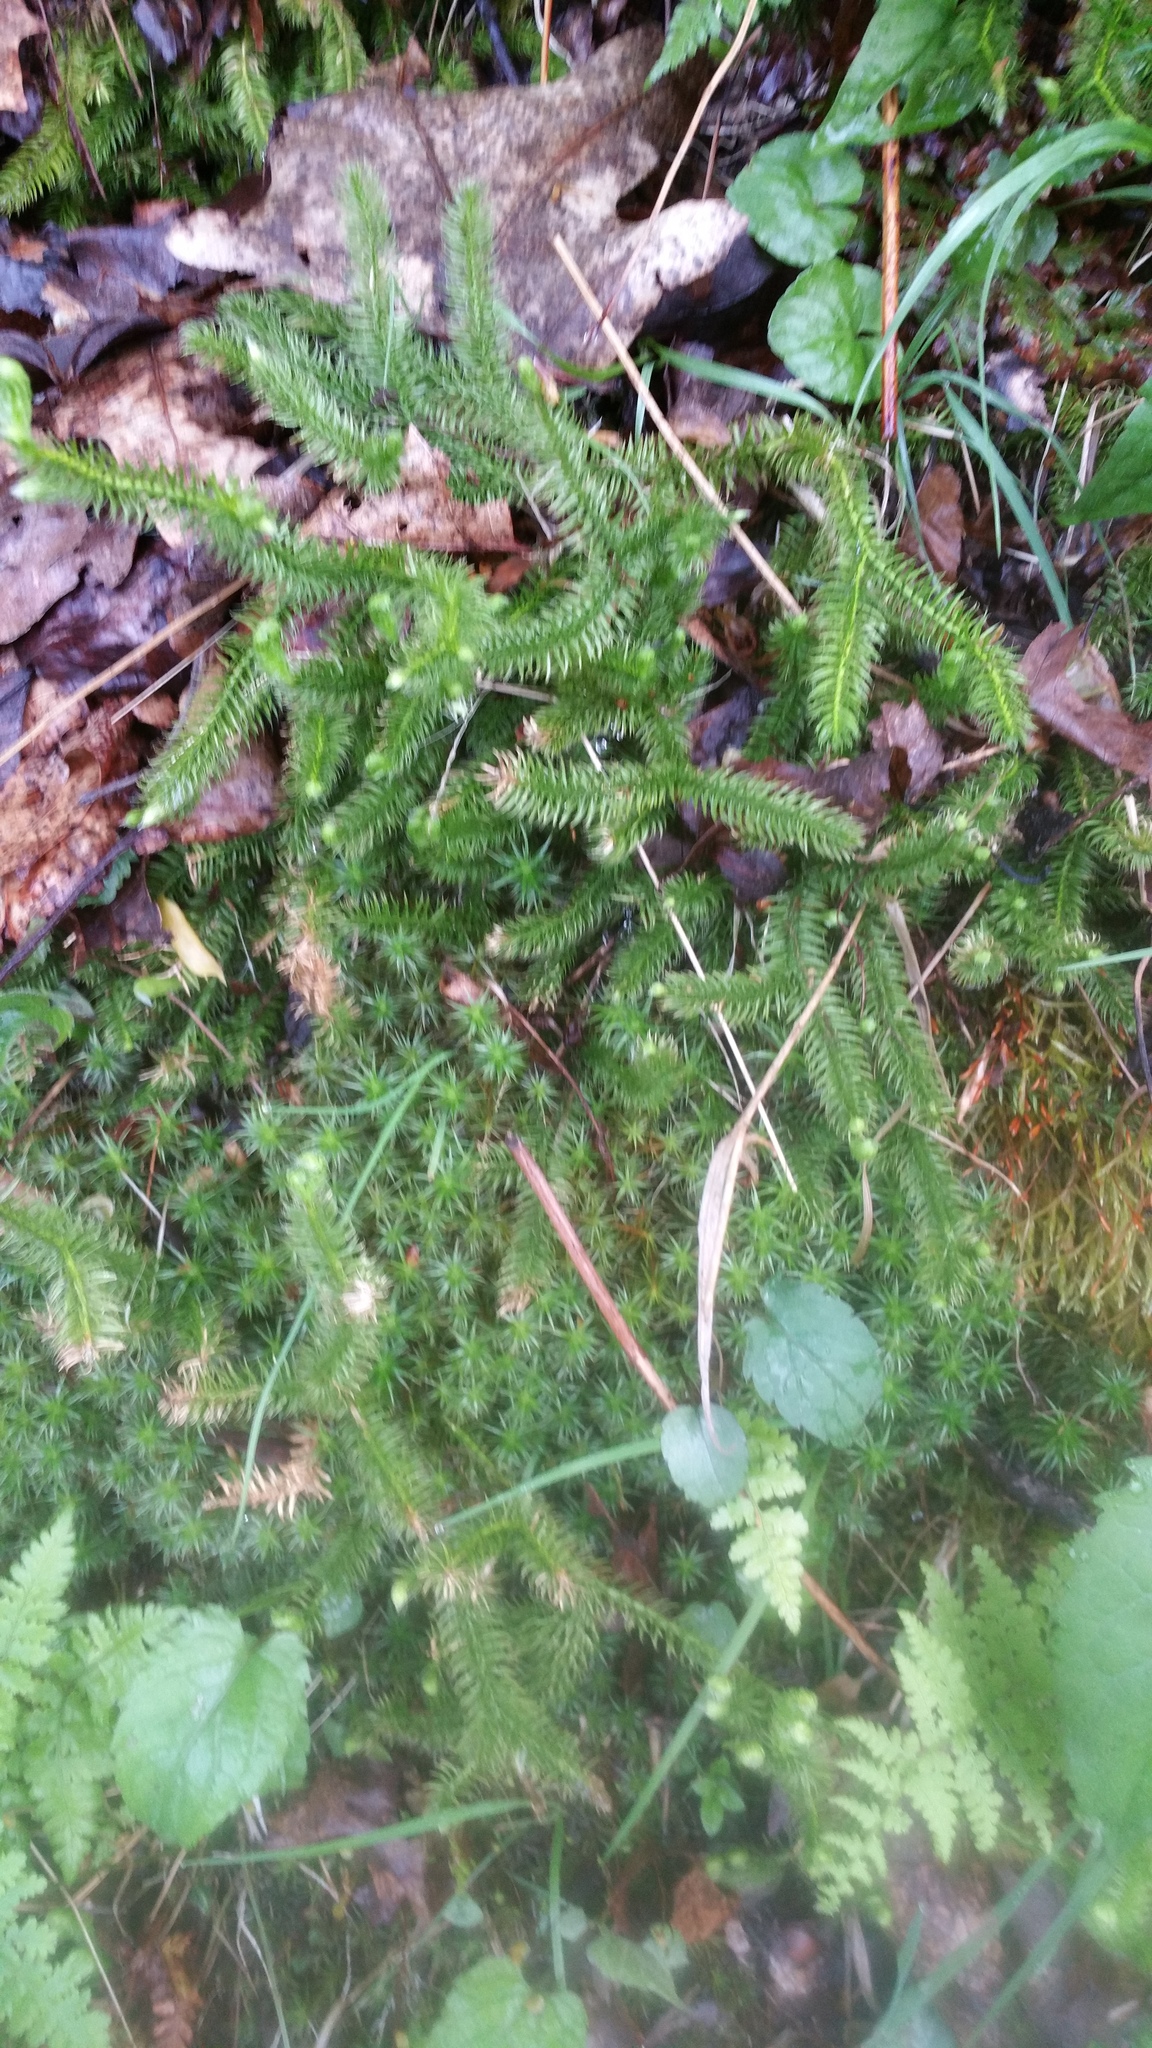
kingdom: Plantae
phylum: Tracheophyta
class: Lycopodiopsida
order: Lycopodiales
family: Lycopodiaceae
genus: Lycopodium
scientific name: Lycopodium clavatum
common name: Stag's-horn clubmoss
